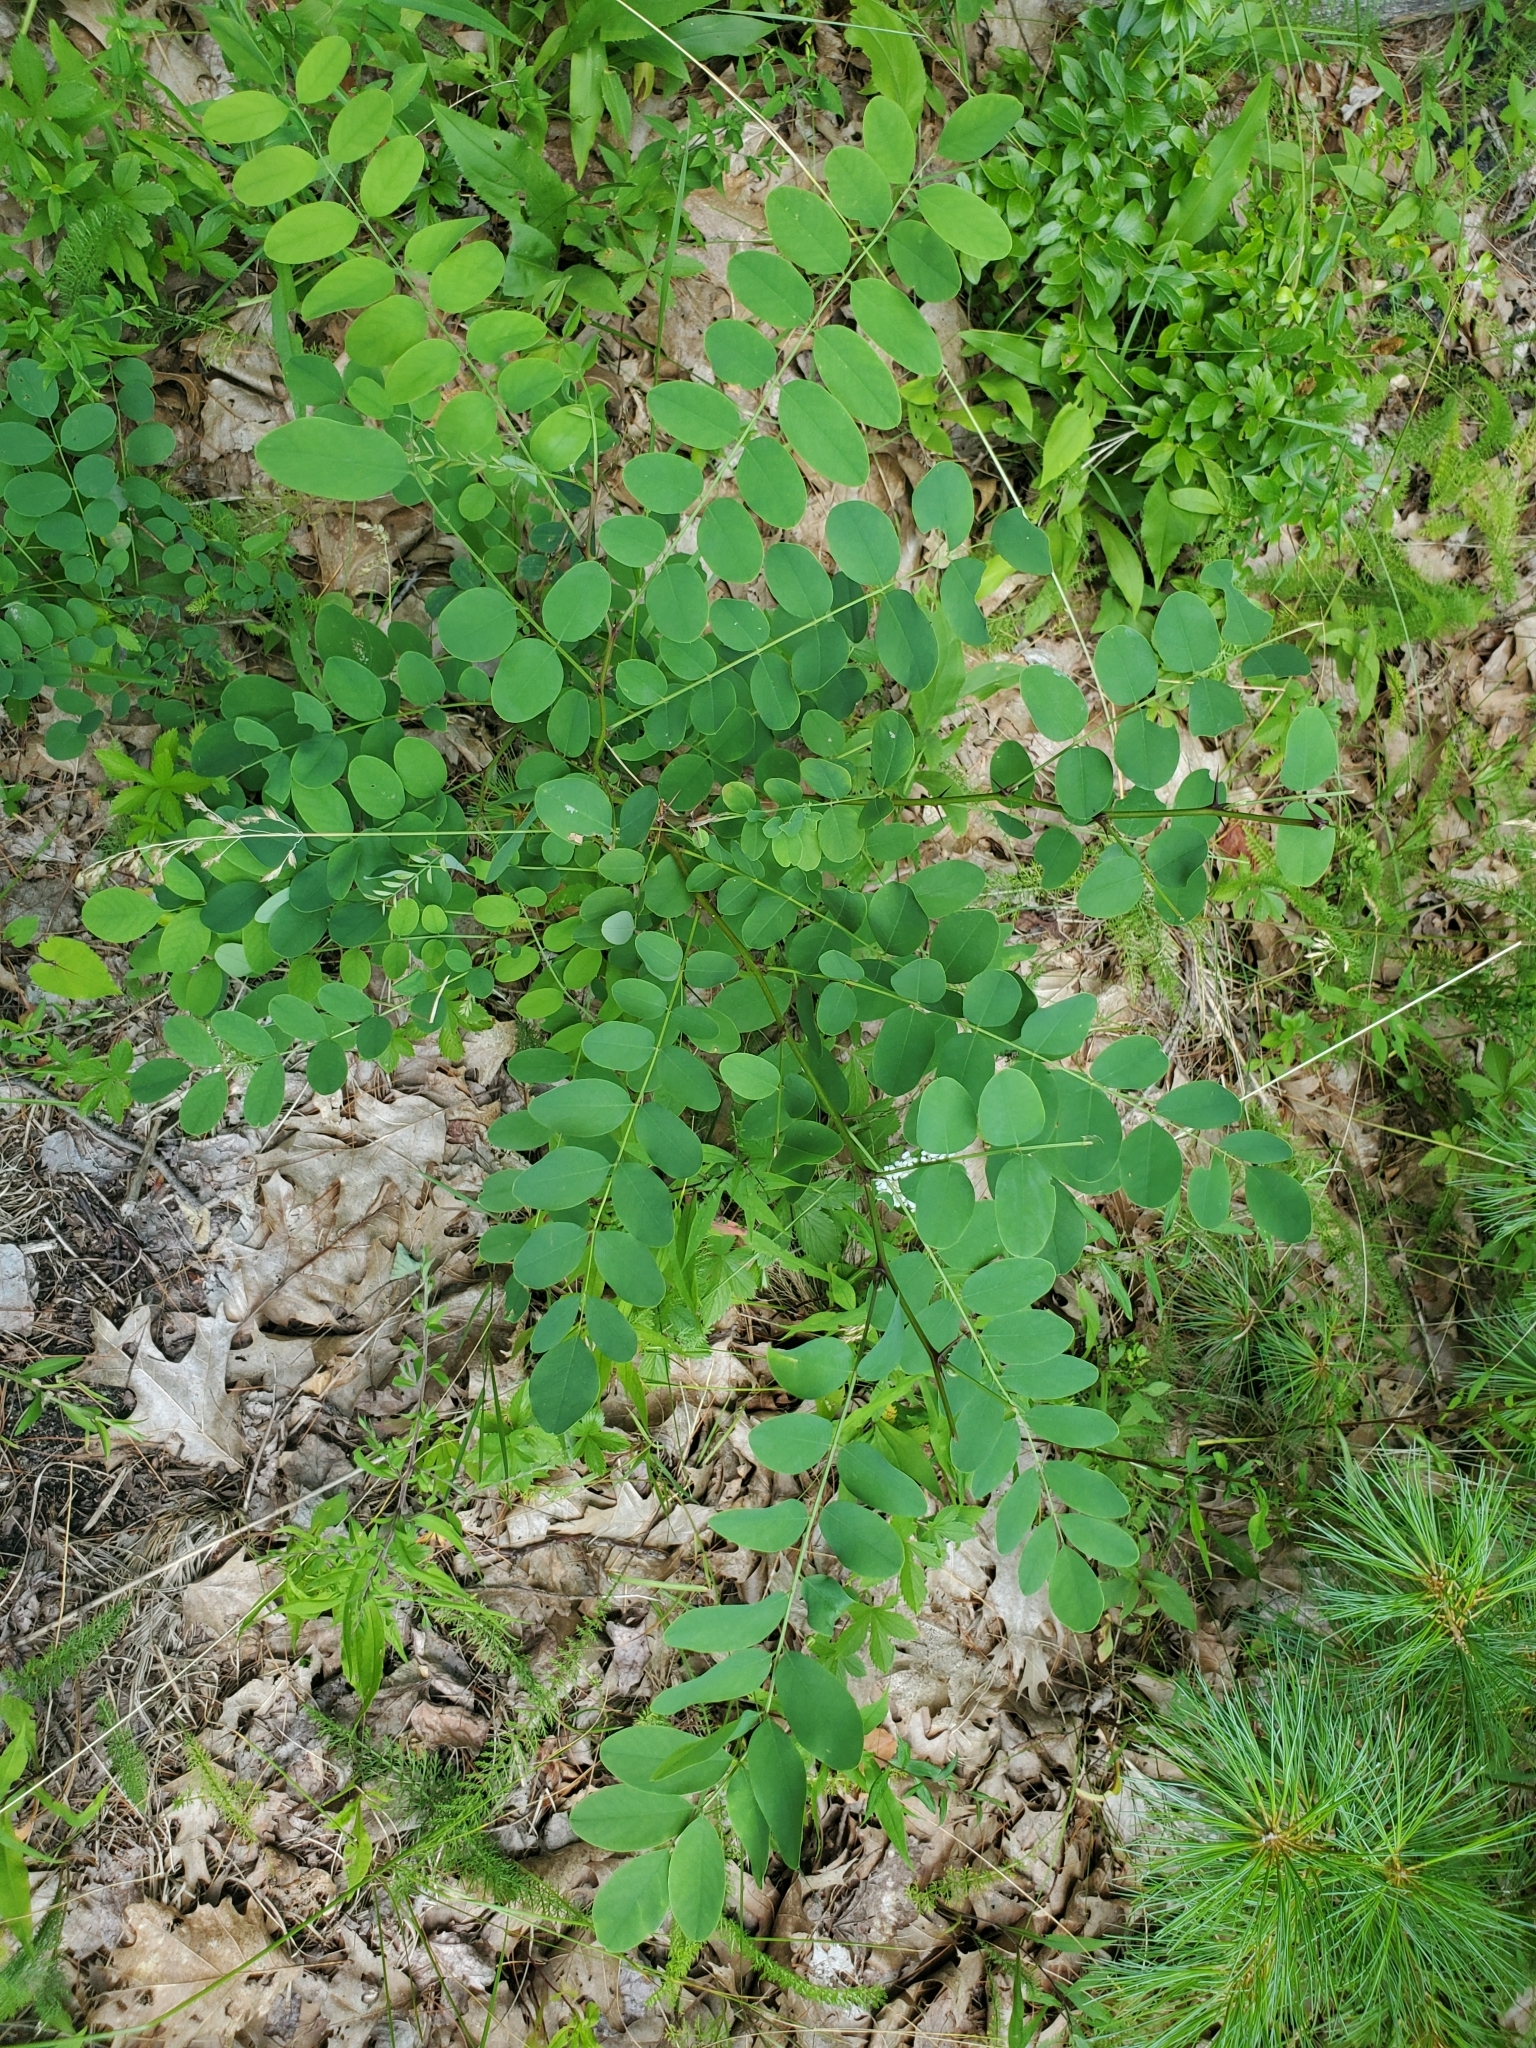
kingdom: Plantae
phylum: Tracheophyta
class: Magnoliopsida
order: Fabales
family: Fabaceae
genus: Robinia
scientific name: Robinia pseudoacacia
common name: Black locust
